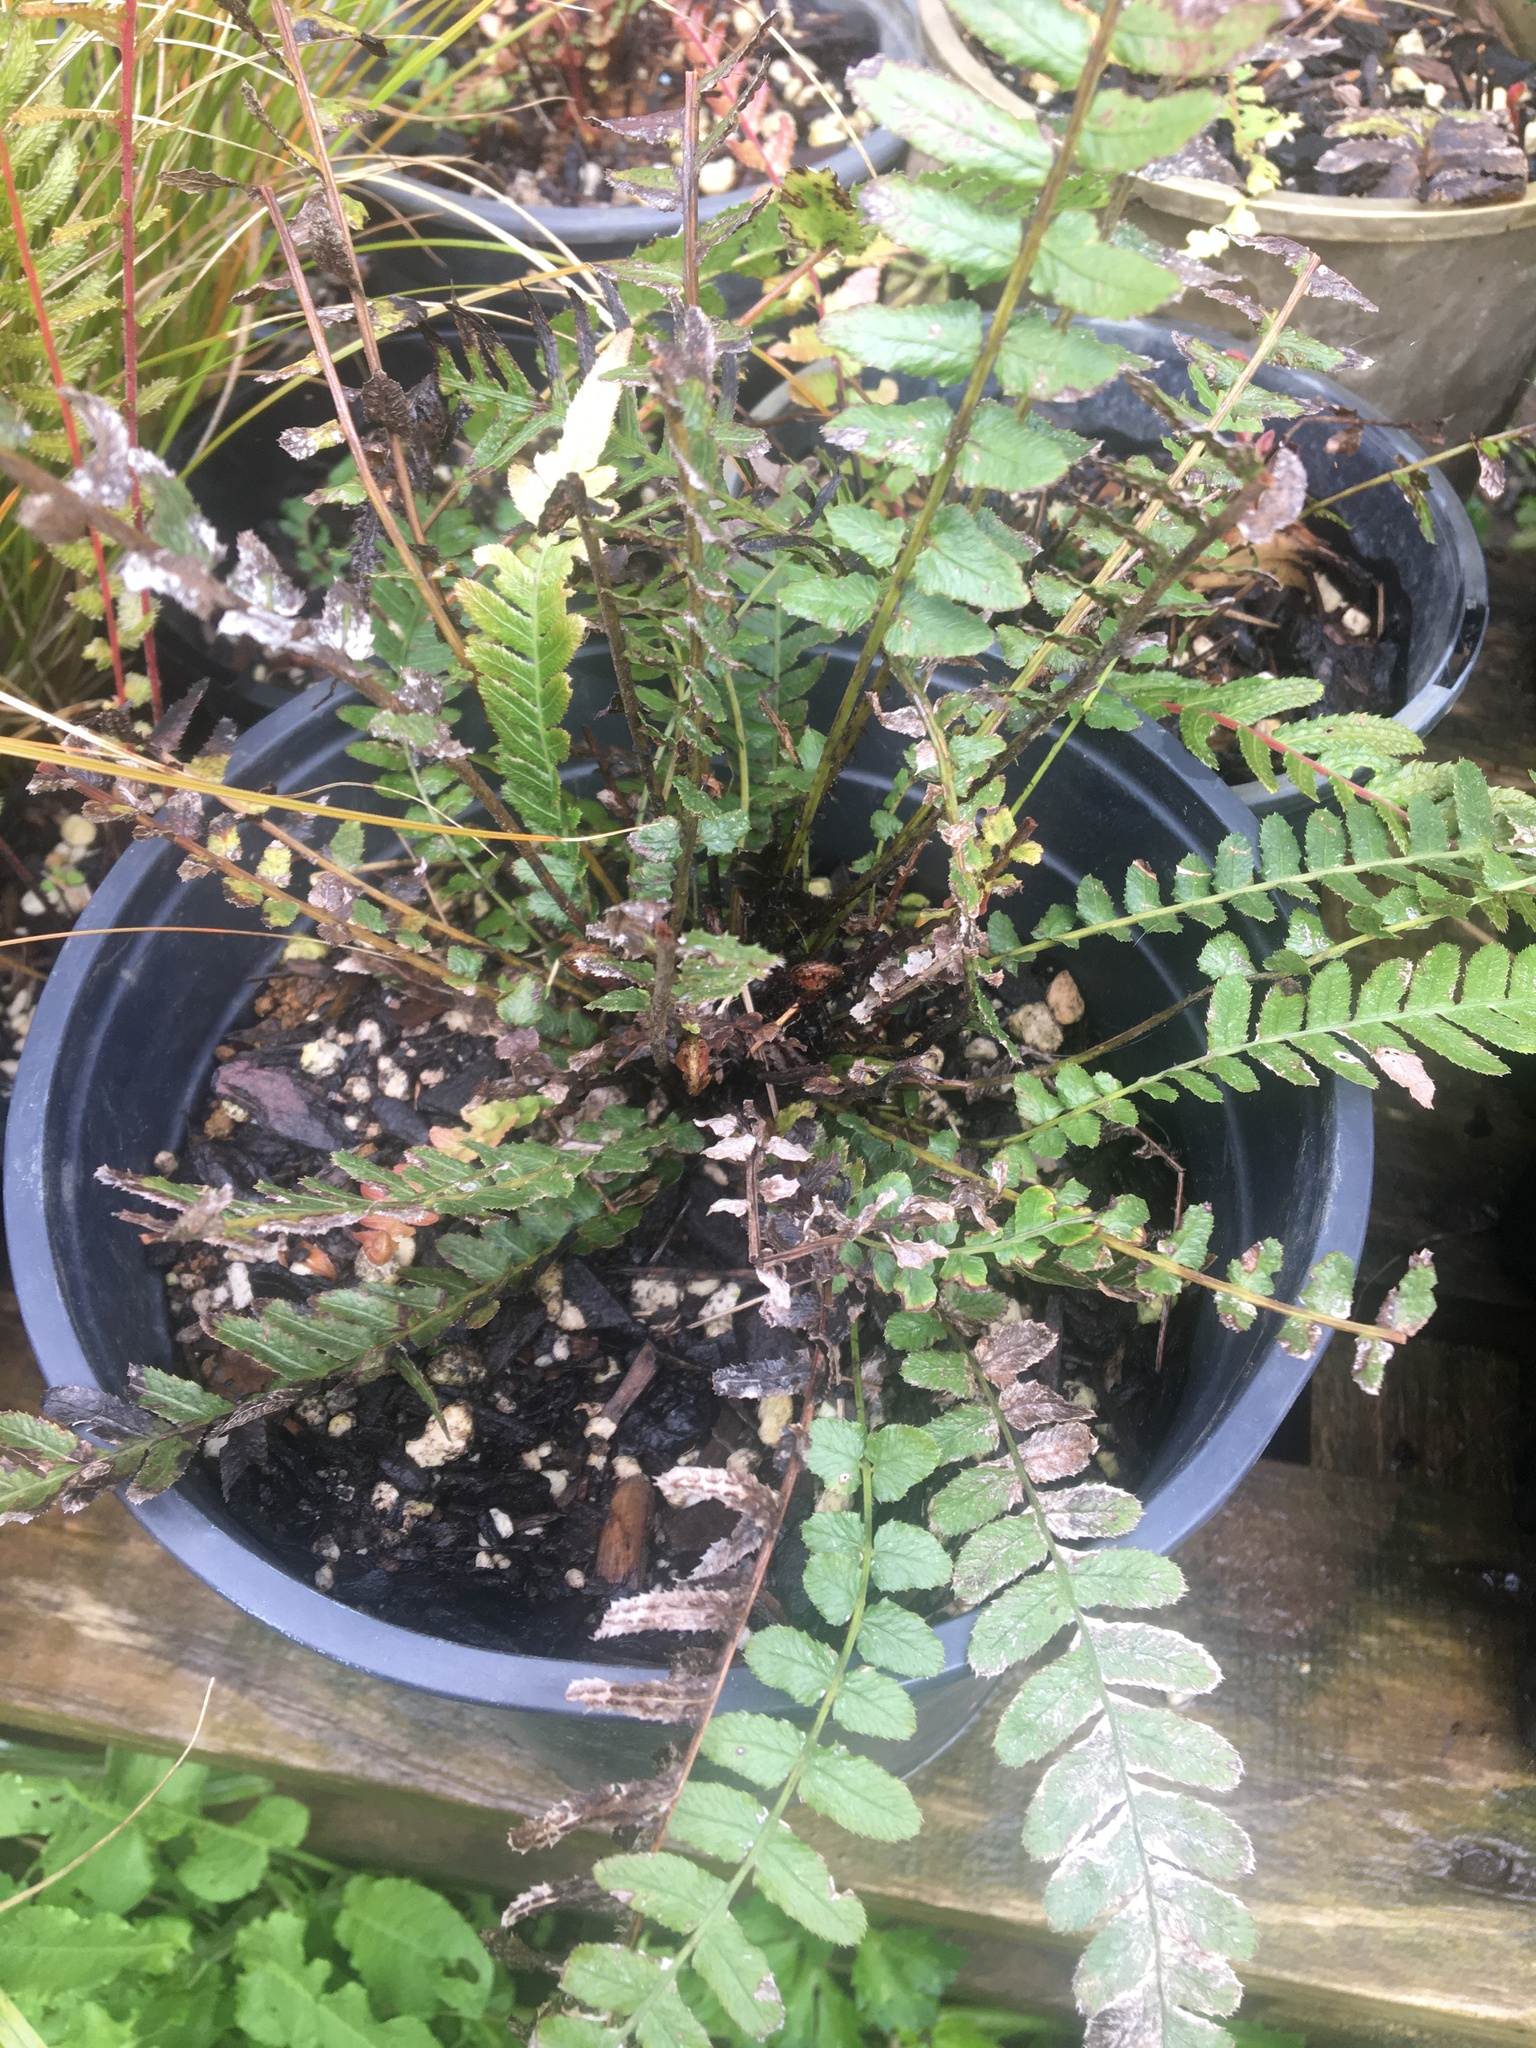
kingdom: Plantae
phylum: Tracheophyta
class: Polypodiopsida
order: Polypodiales
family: Blechnaceae
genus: Doodia
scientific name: Doodia australis
